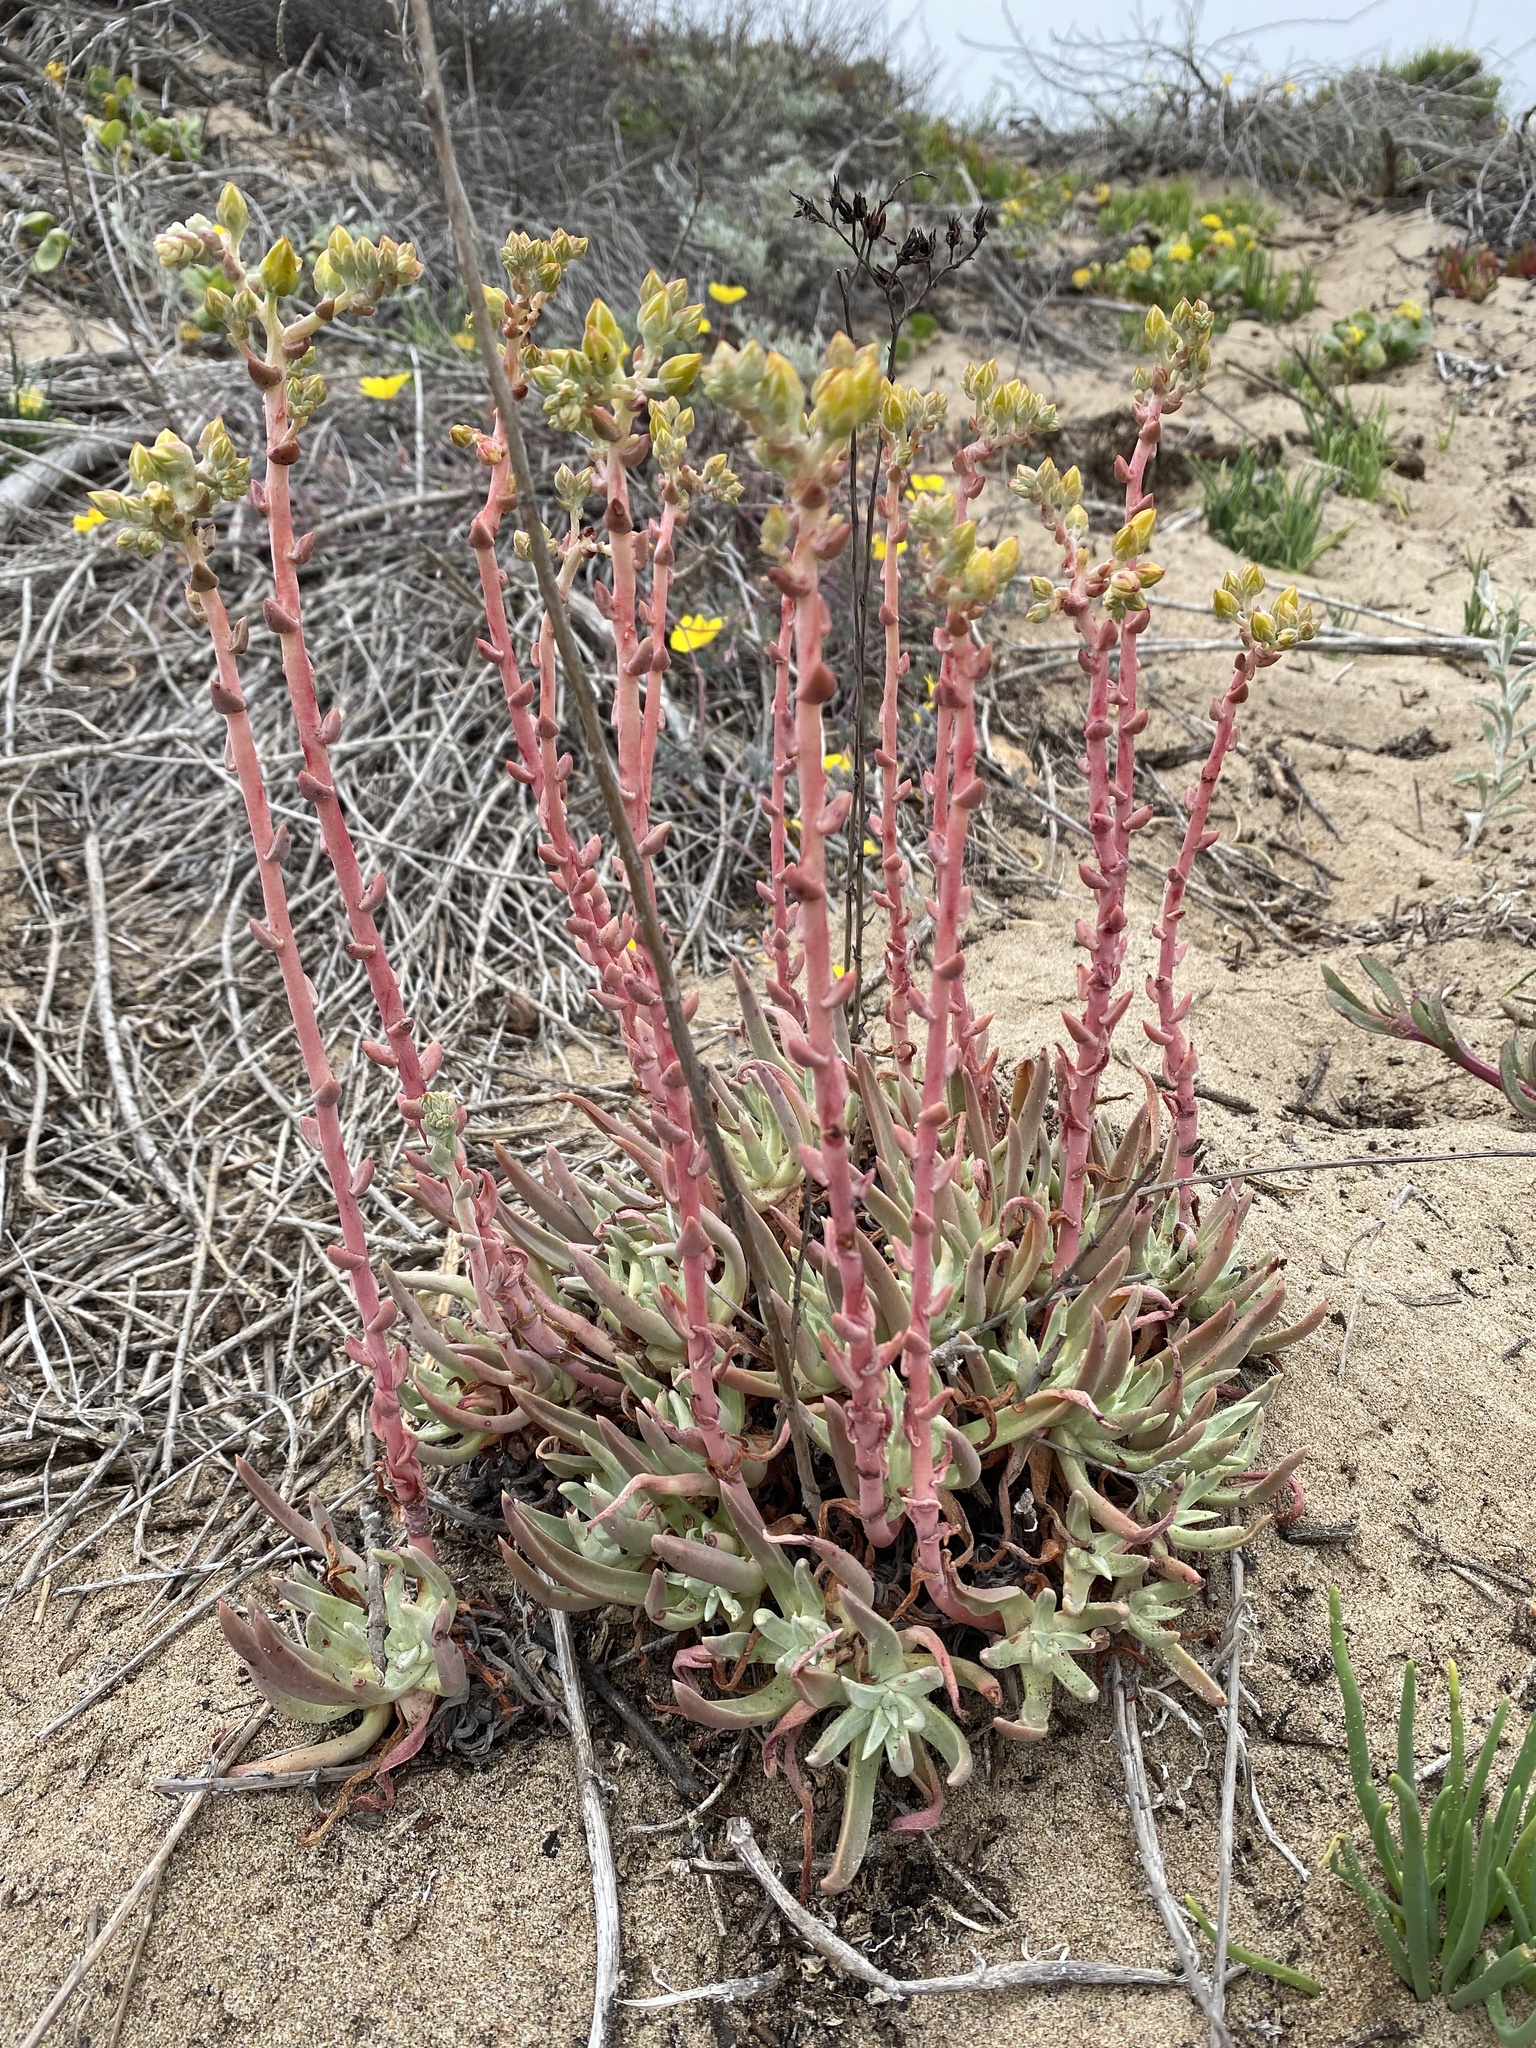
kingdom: Plantae
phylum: Tracheophyta
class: Magnoliopsida
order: Saxifragales
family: Crassulaceae
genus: Dudleya
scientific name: Dudleya caespitosa
